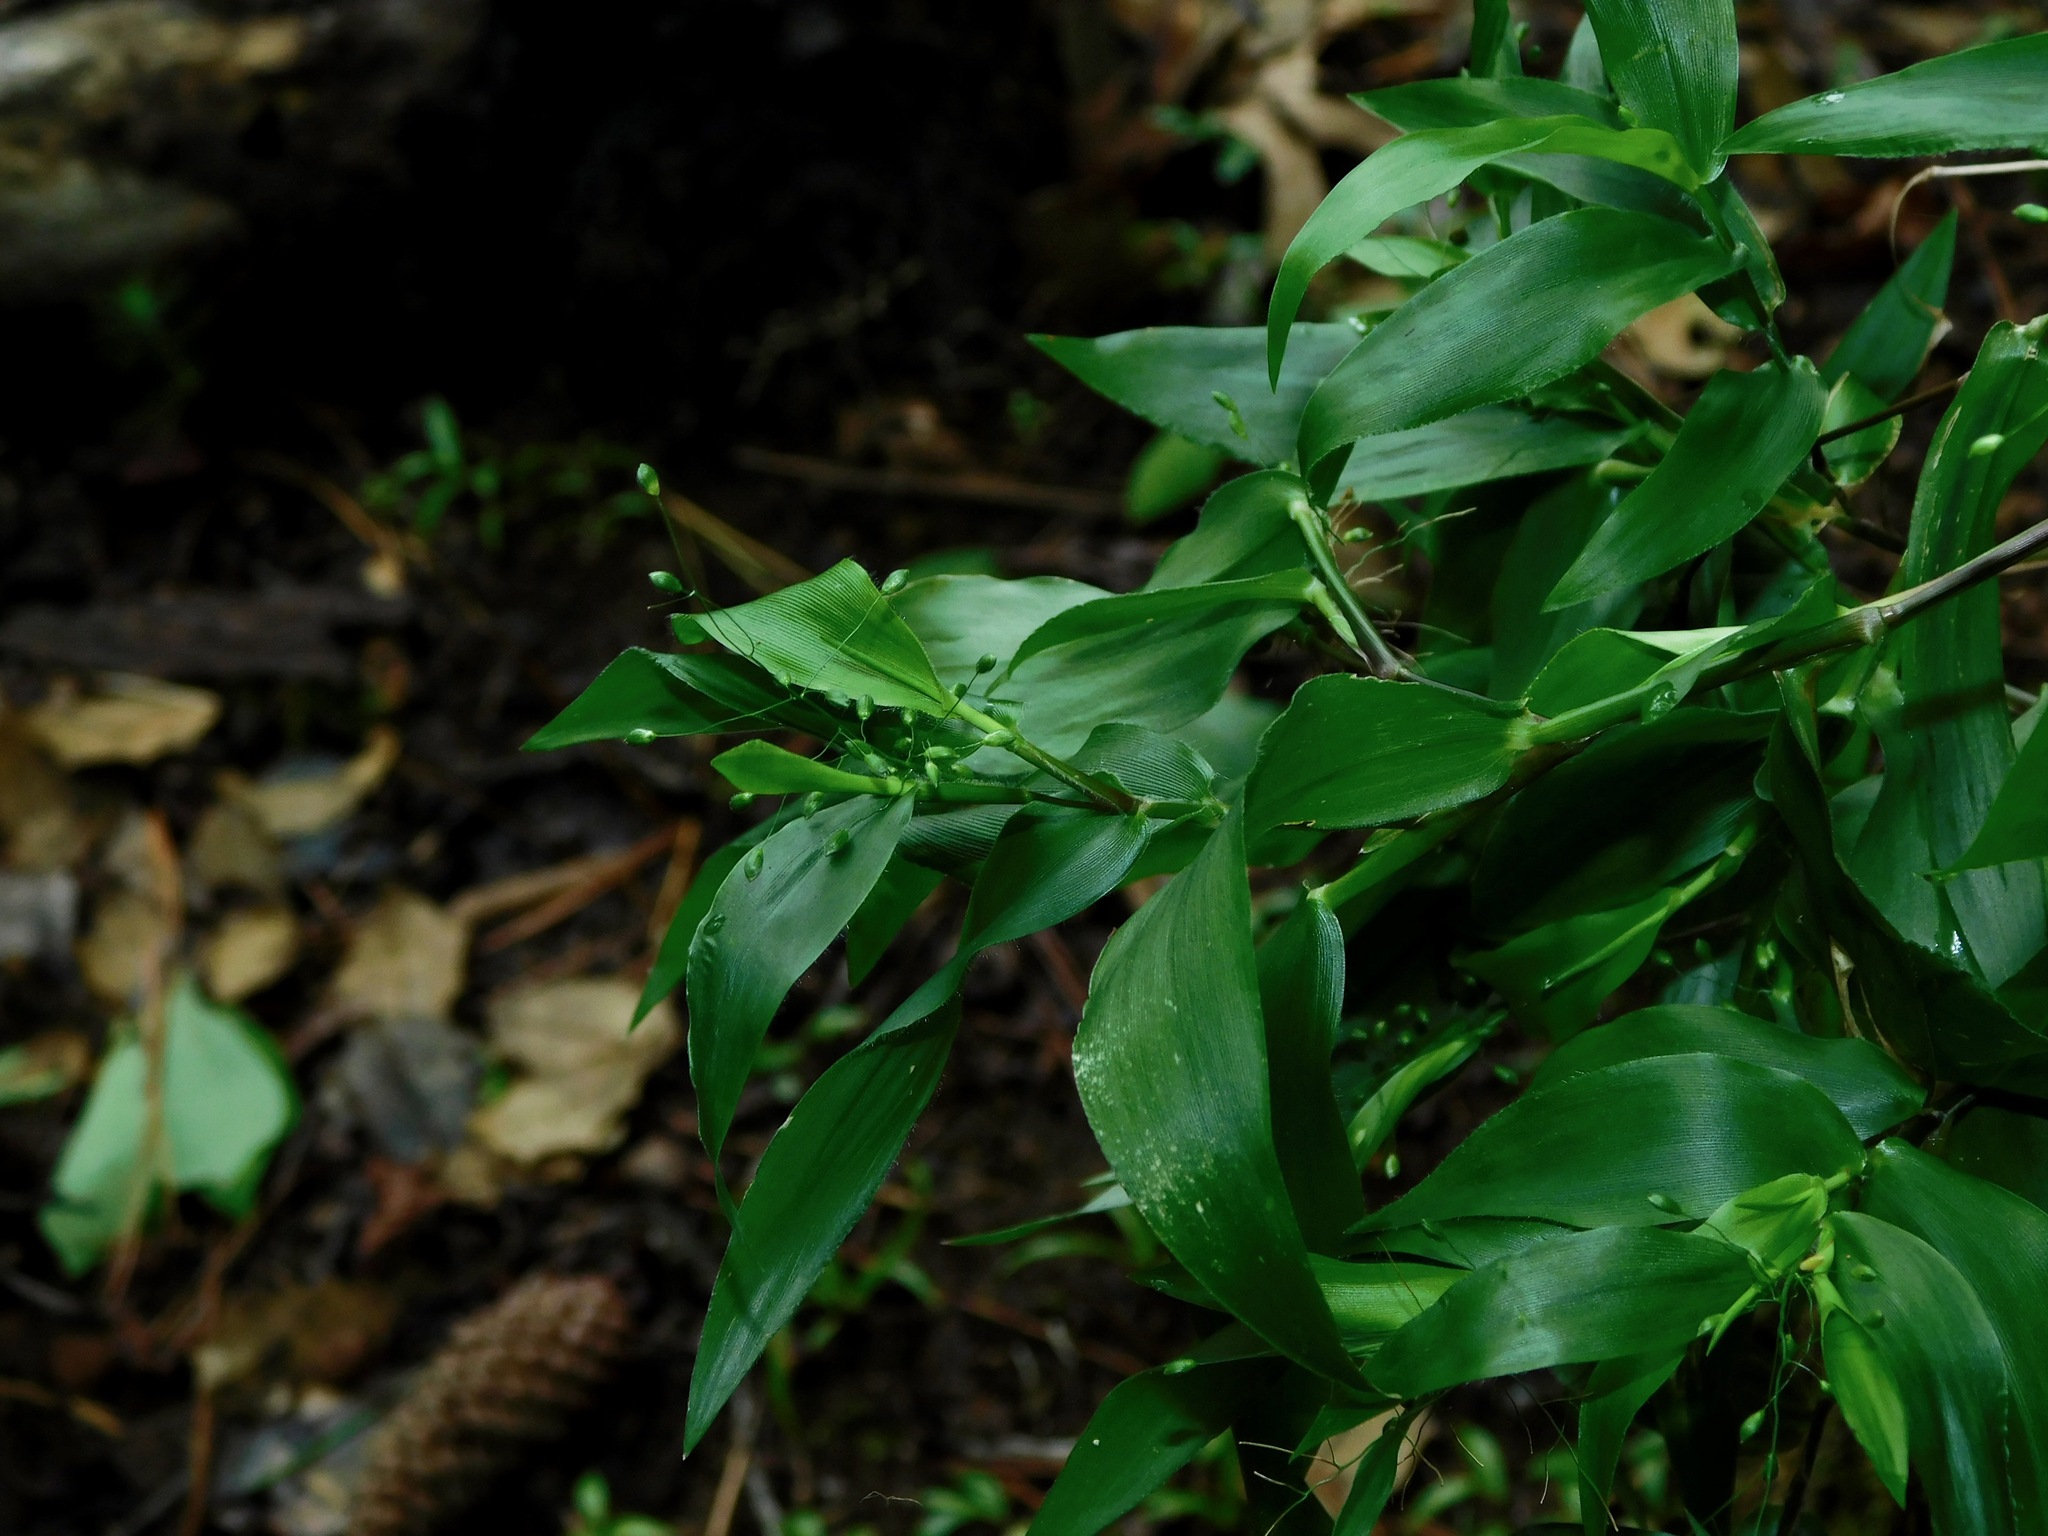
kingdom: Plantae
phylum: Tracheophyta
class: Liliopsida
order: Poales
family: Poaceae
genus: Dichanthelium
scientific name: Dichanthelium boscii
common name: Bosc's panic grass
